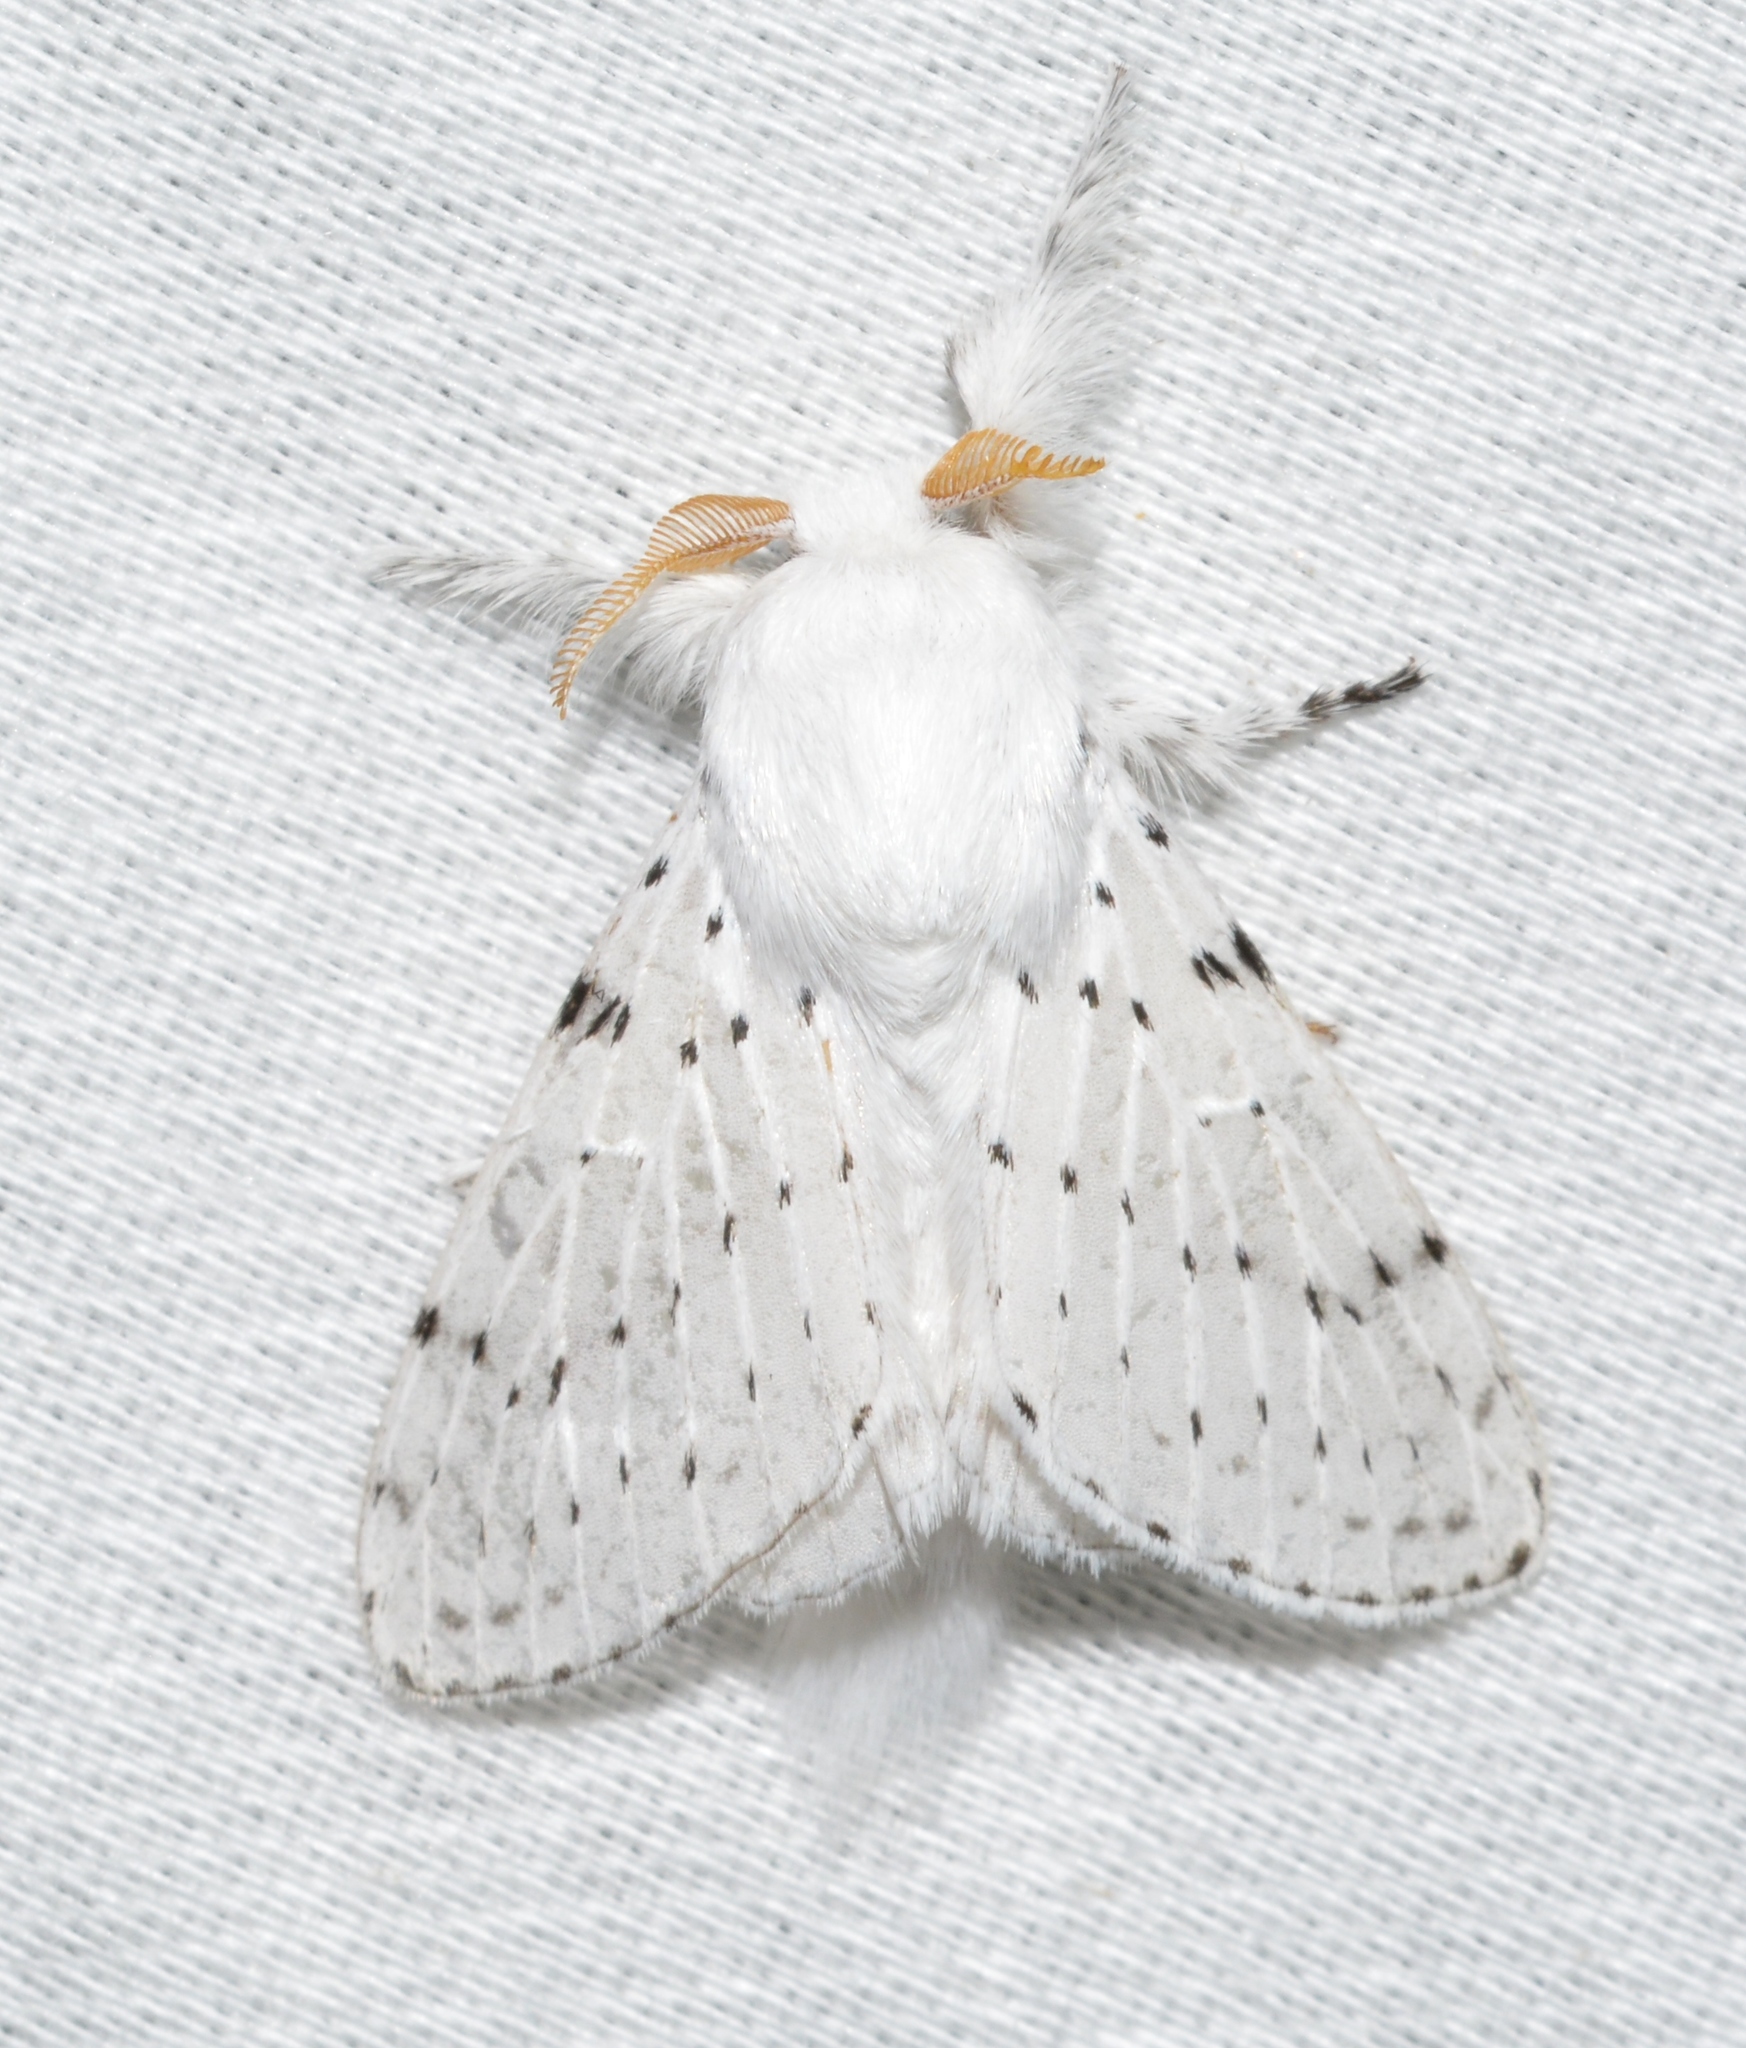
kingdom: Animalia
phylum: Arthropoda
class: Insecta
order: Lepidoptera
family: Lasiocampidae
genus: Artace
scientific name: Artace cribrarius
